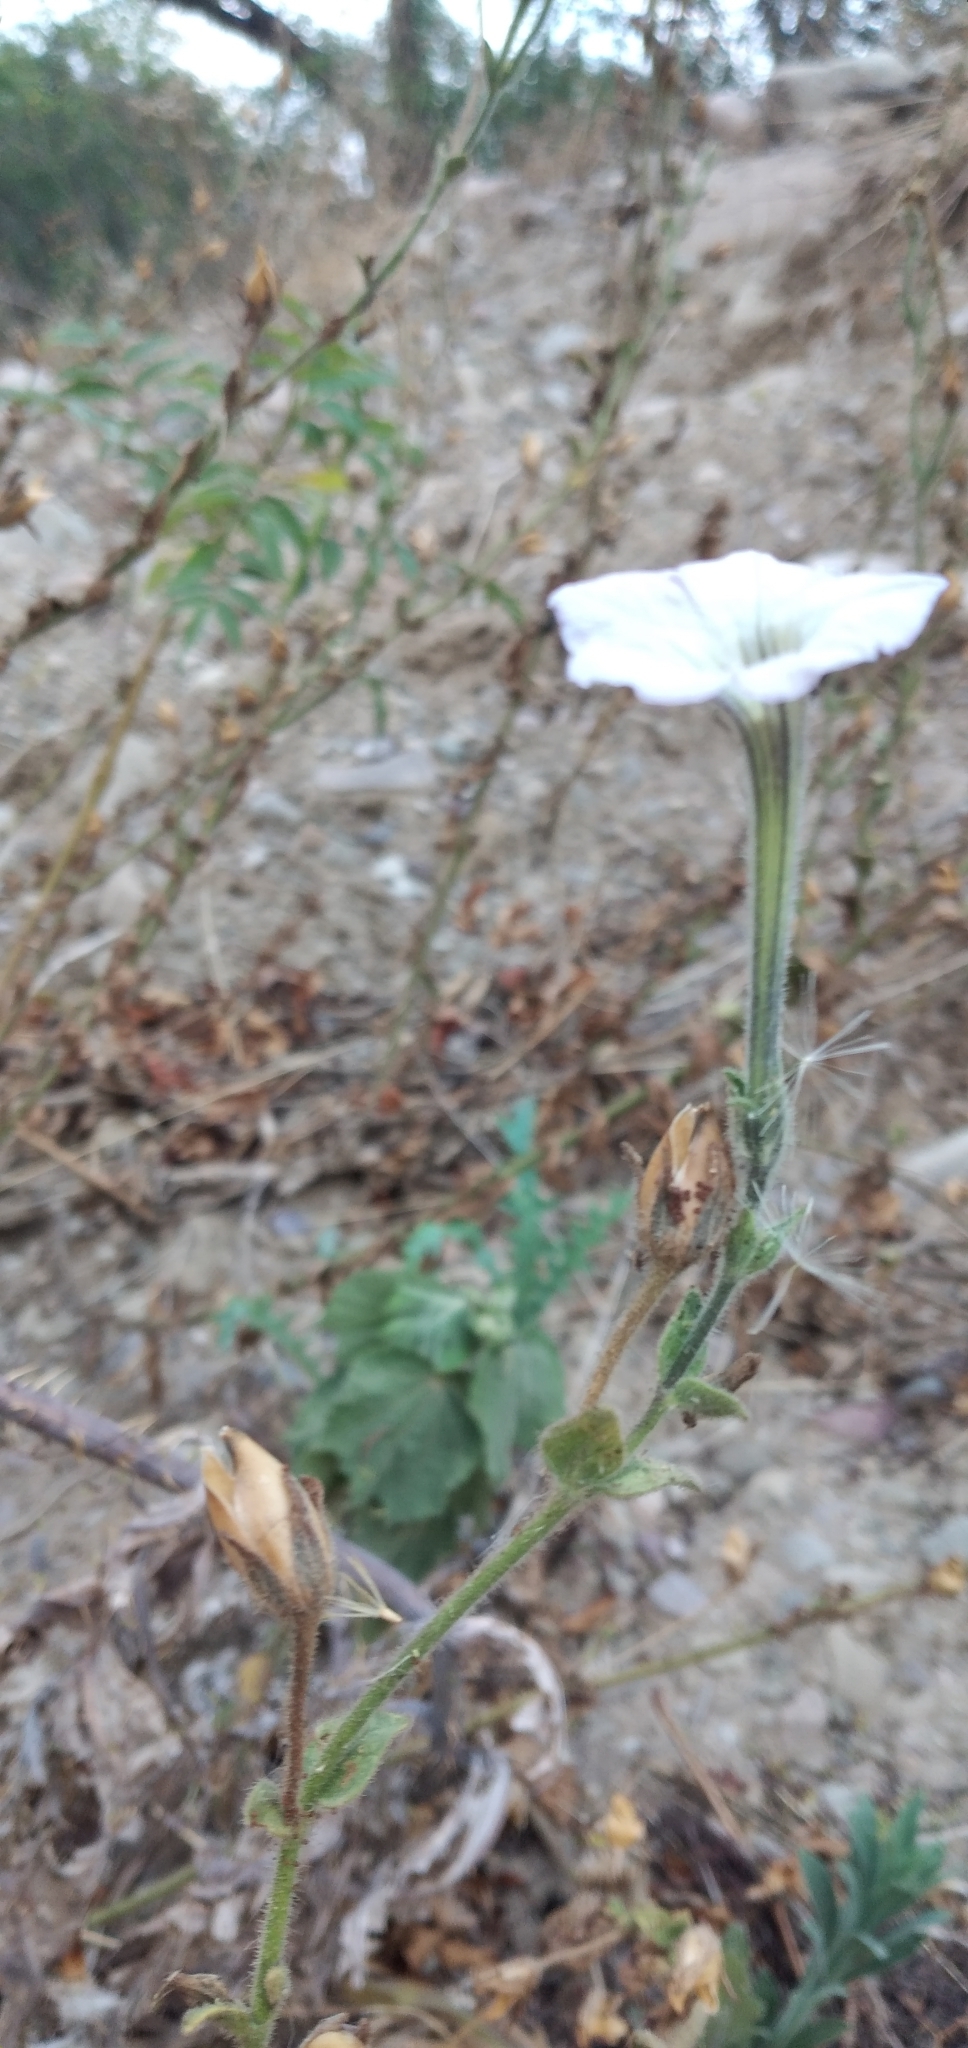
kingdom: Plantae
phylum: Tracheophyta
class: Magnoliopsida
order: Solanales
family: Solanaceae
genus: Petunia
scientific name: Petunia axillaris
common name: Large white petunia
